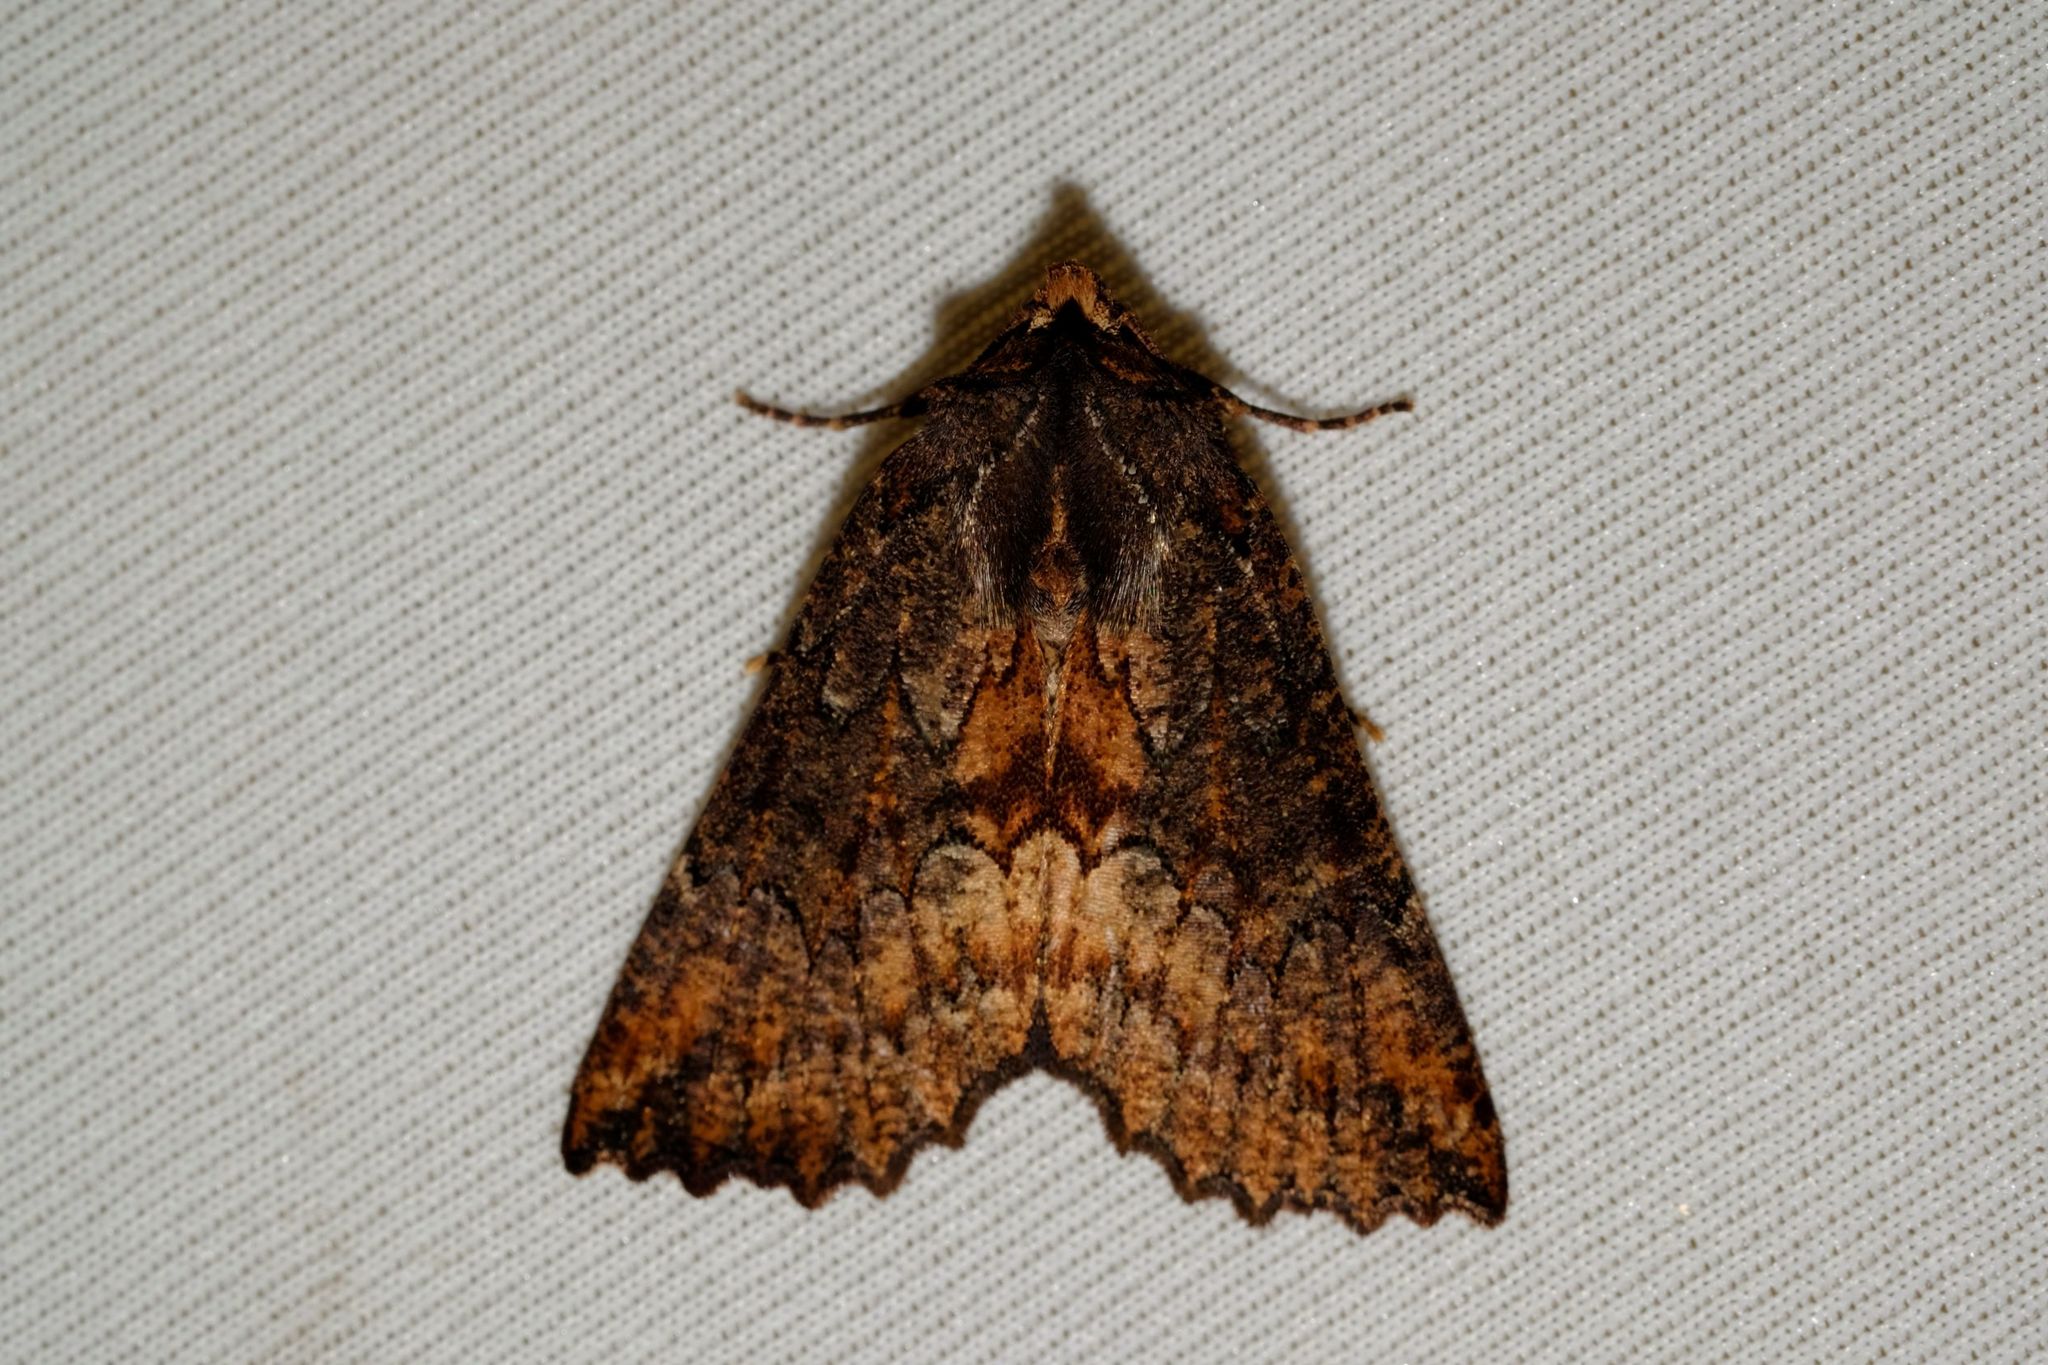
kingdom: Animalia
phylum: Arthropoda
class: Insecta
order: Lepidoptera
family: Geometridae
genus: Nisista
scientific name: Nisista serrata
